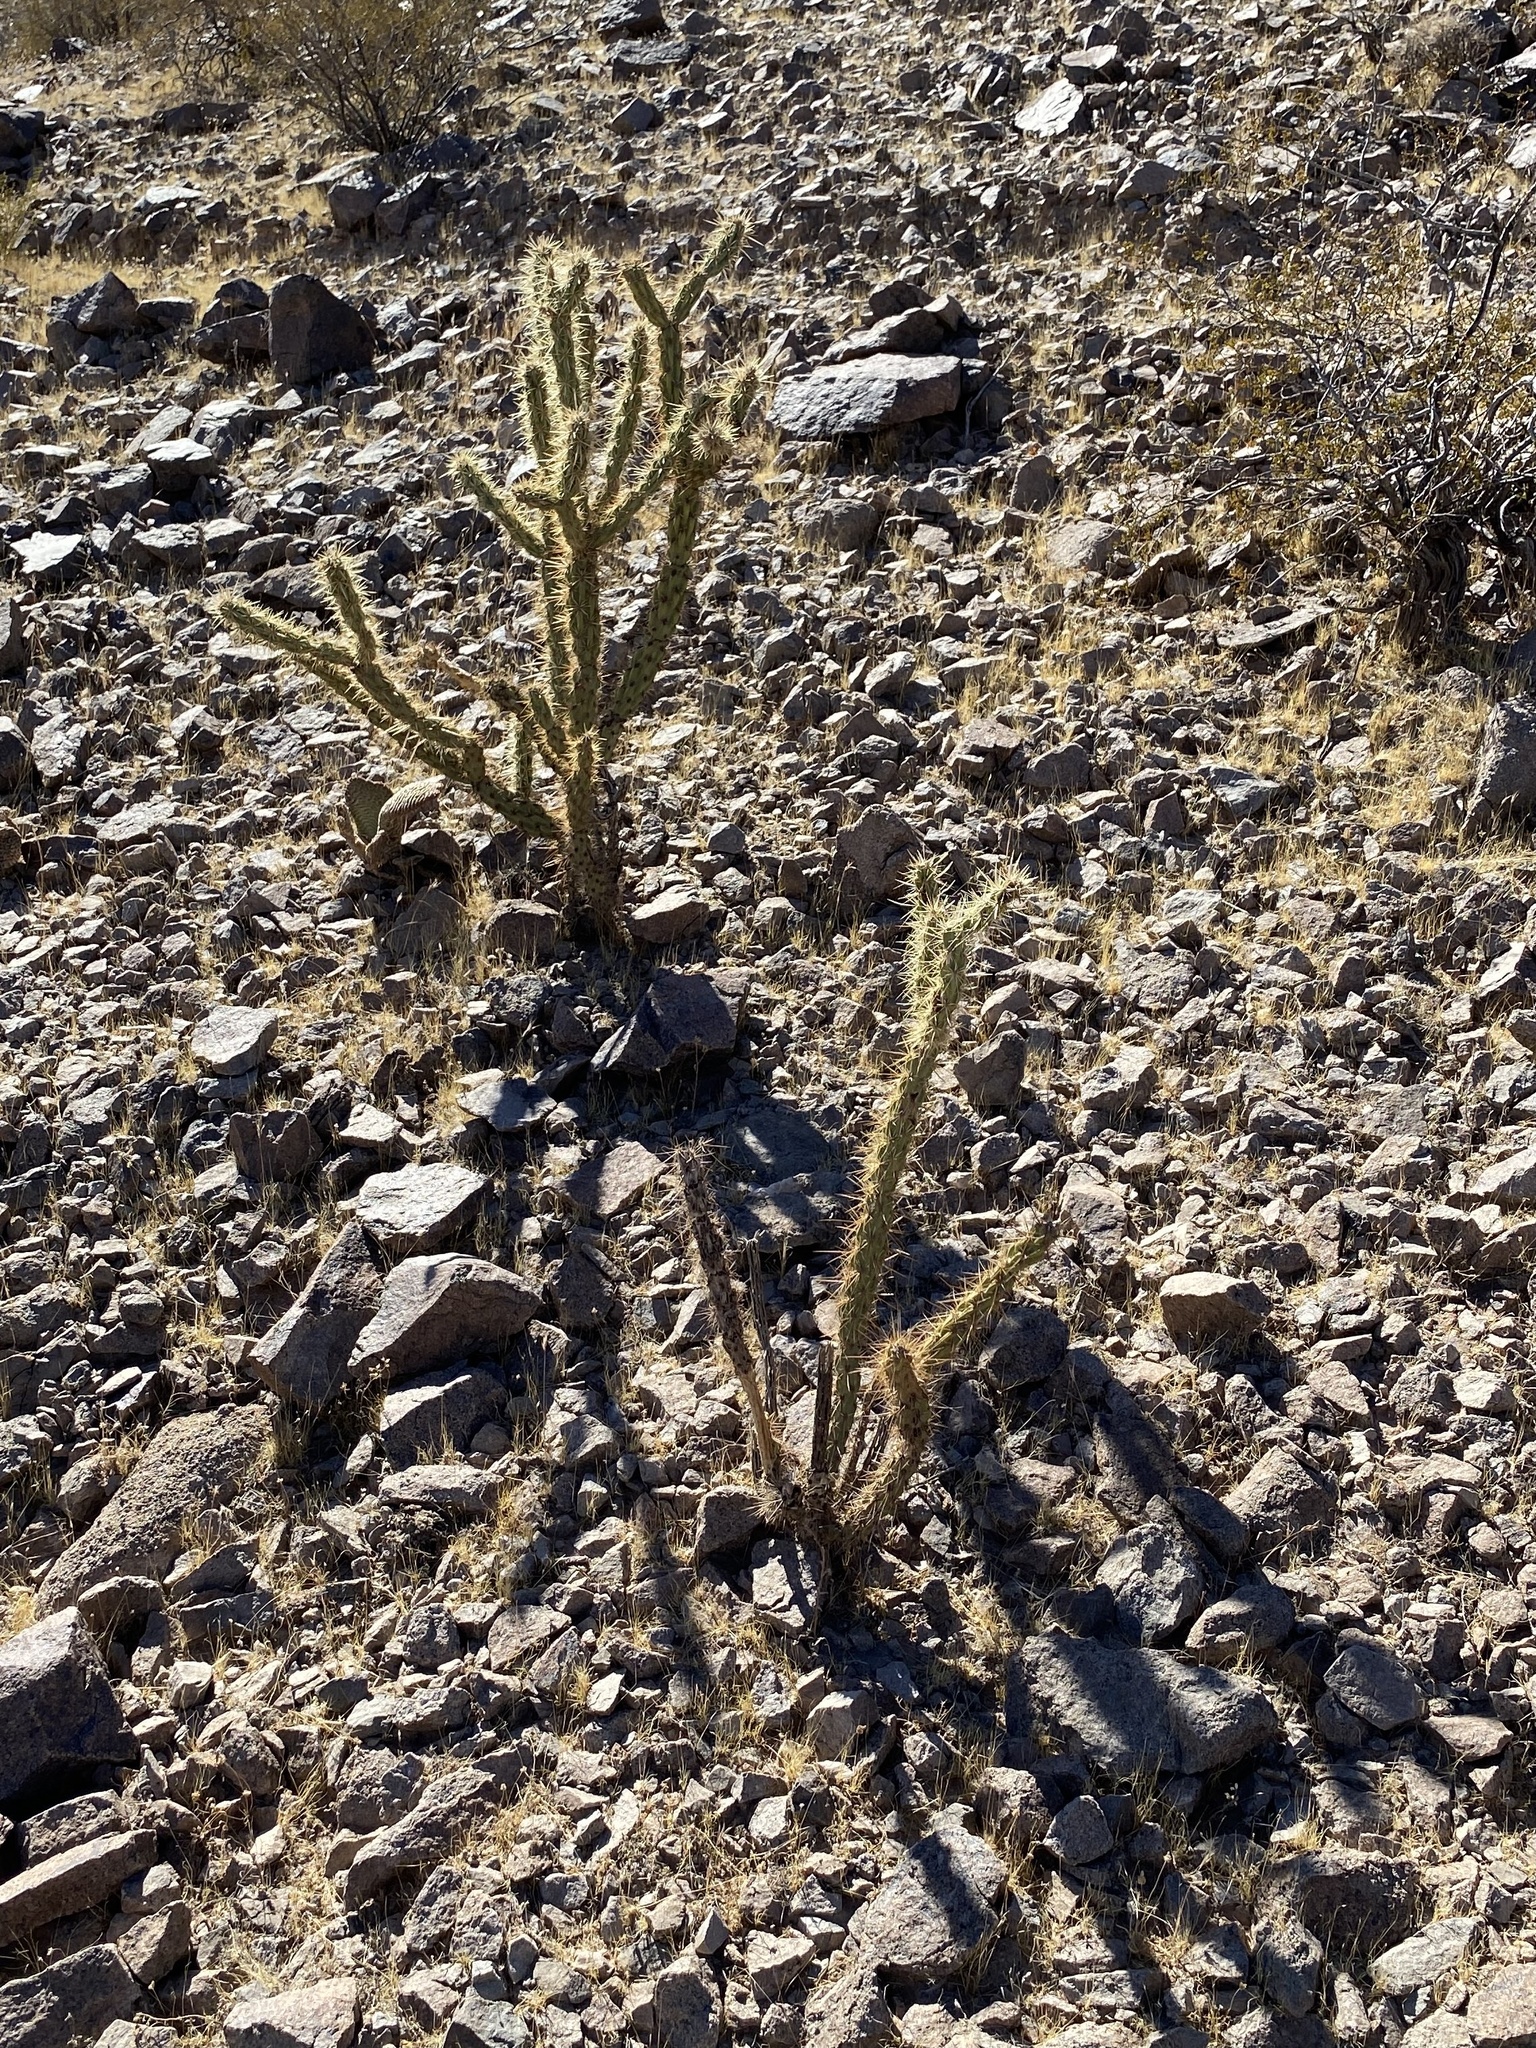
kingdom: Plantae
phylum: Tracheophyta
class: Magnoliopsida
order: Caryophyllales
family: Cactaceae
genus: Cylindropuntia
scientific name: Cylindropuntia acanthocarpa
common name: Buckhorn cholla
